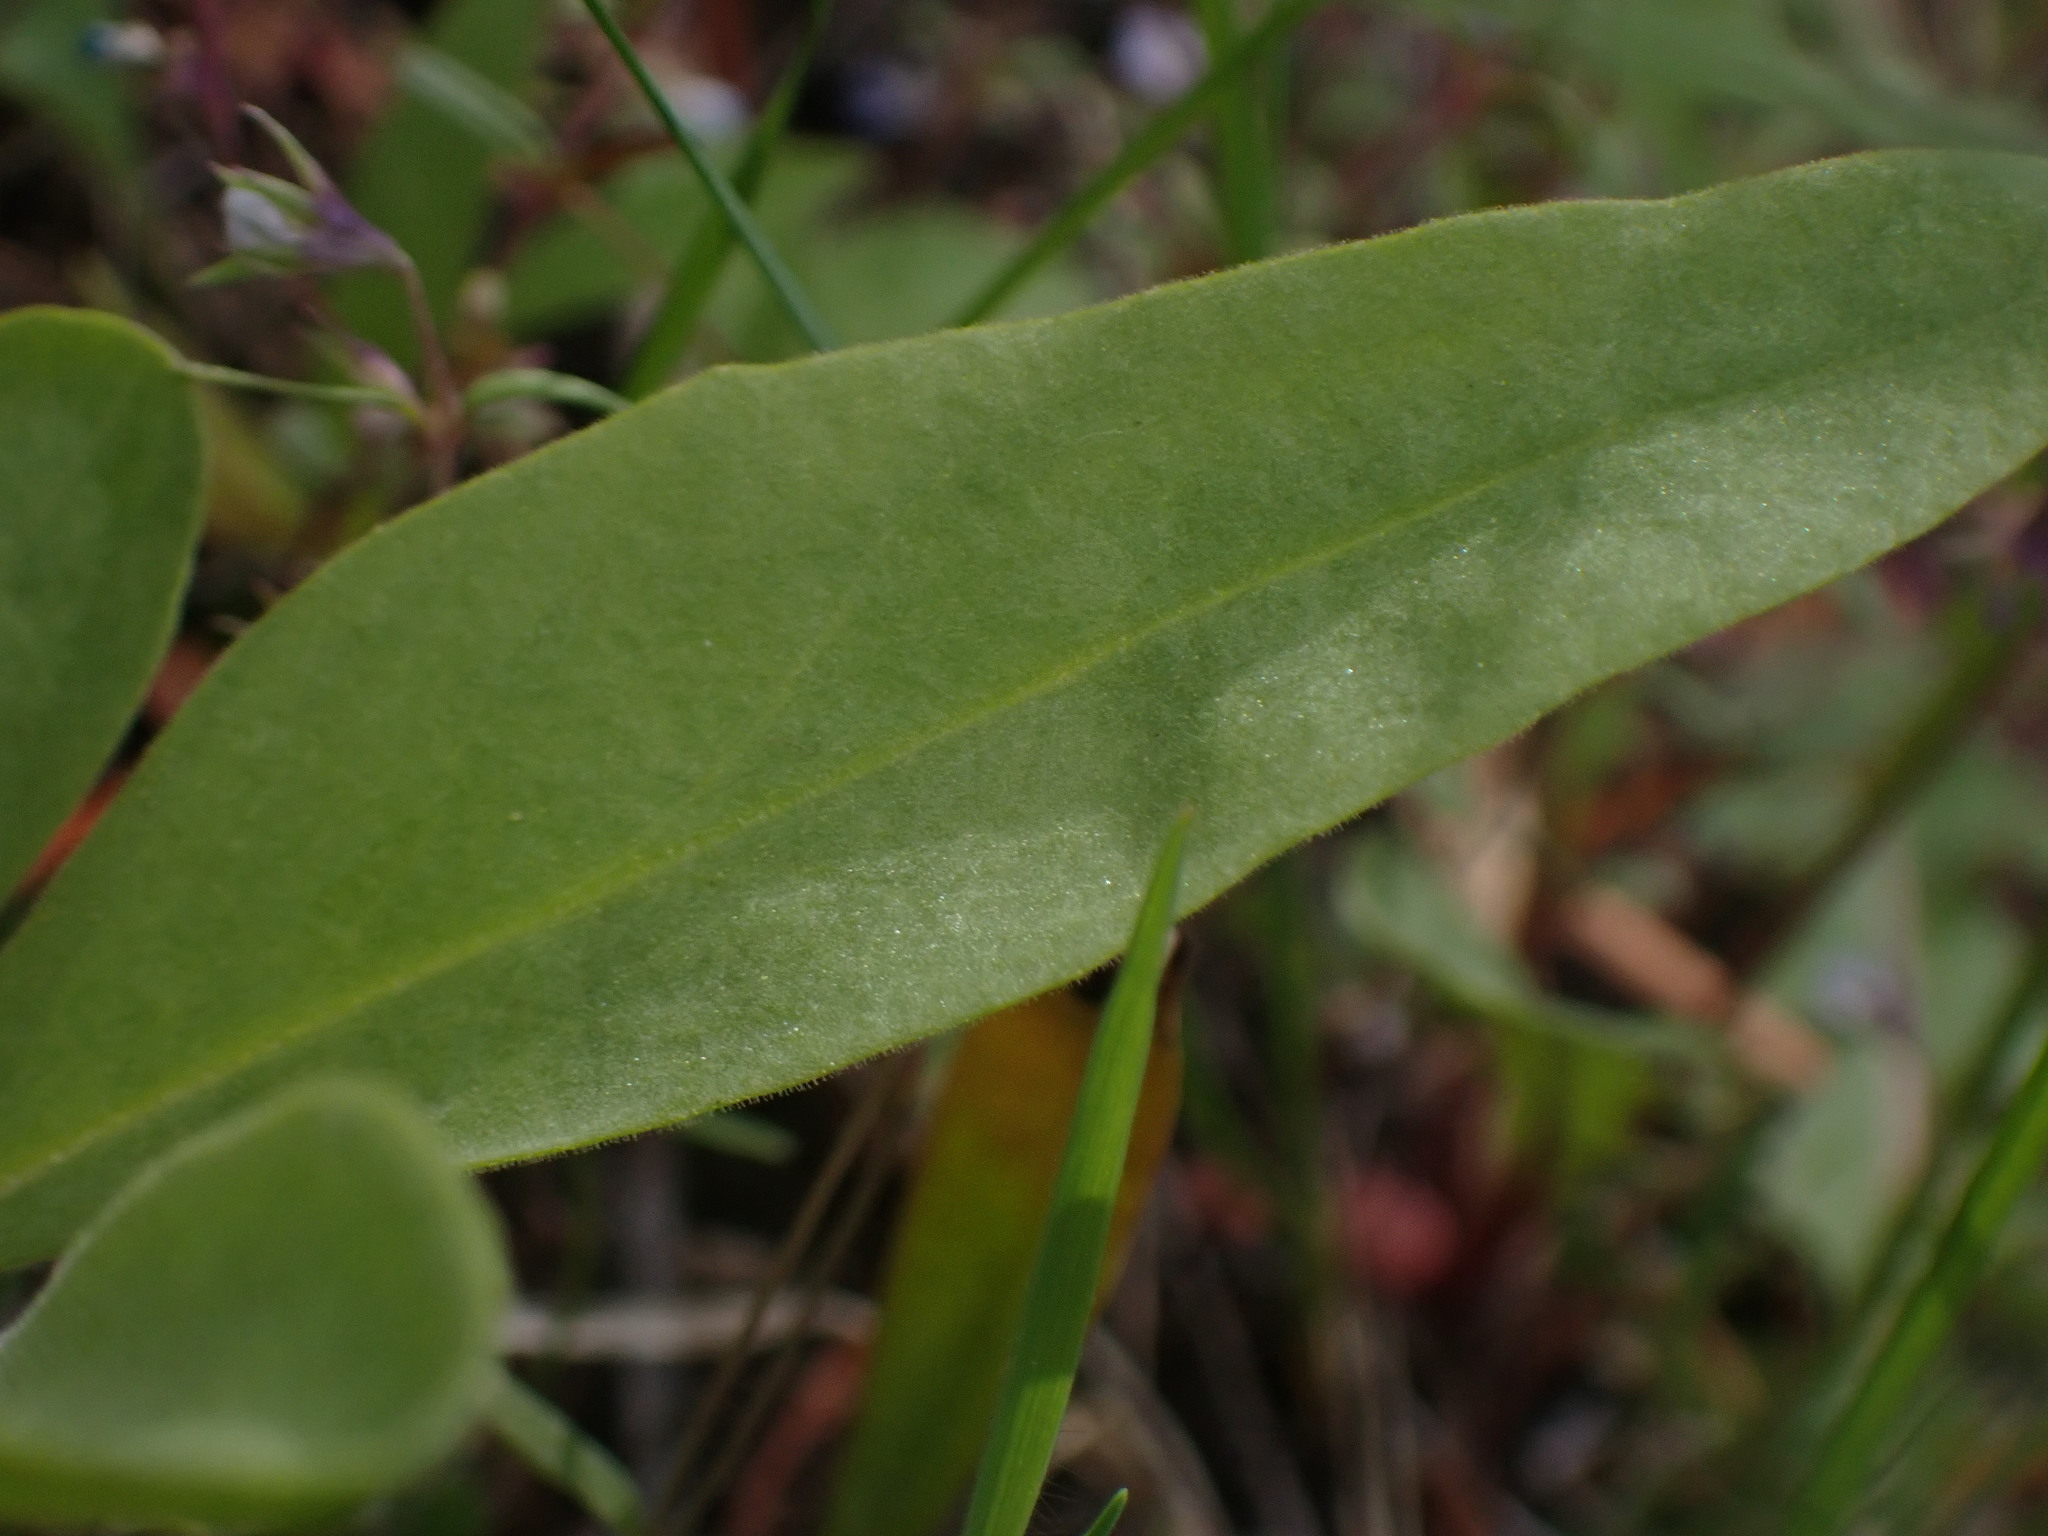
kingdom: Plantae
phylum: Tracheophyta
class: Magnoliopsida
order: Ericales
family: Primulaceae
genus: Dodecatheon
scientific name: Dodecatheon pulchellum
